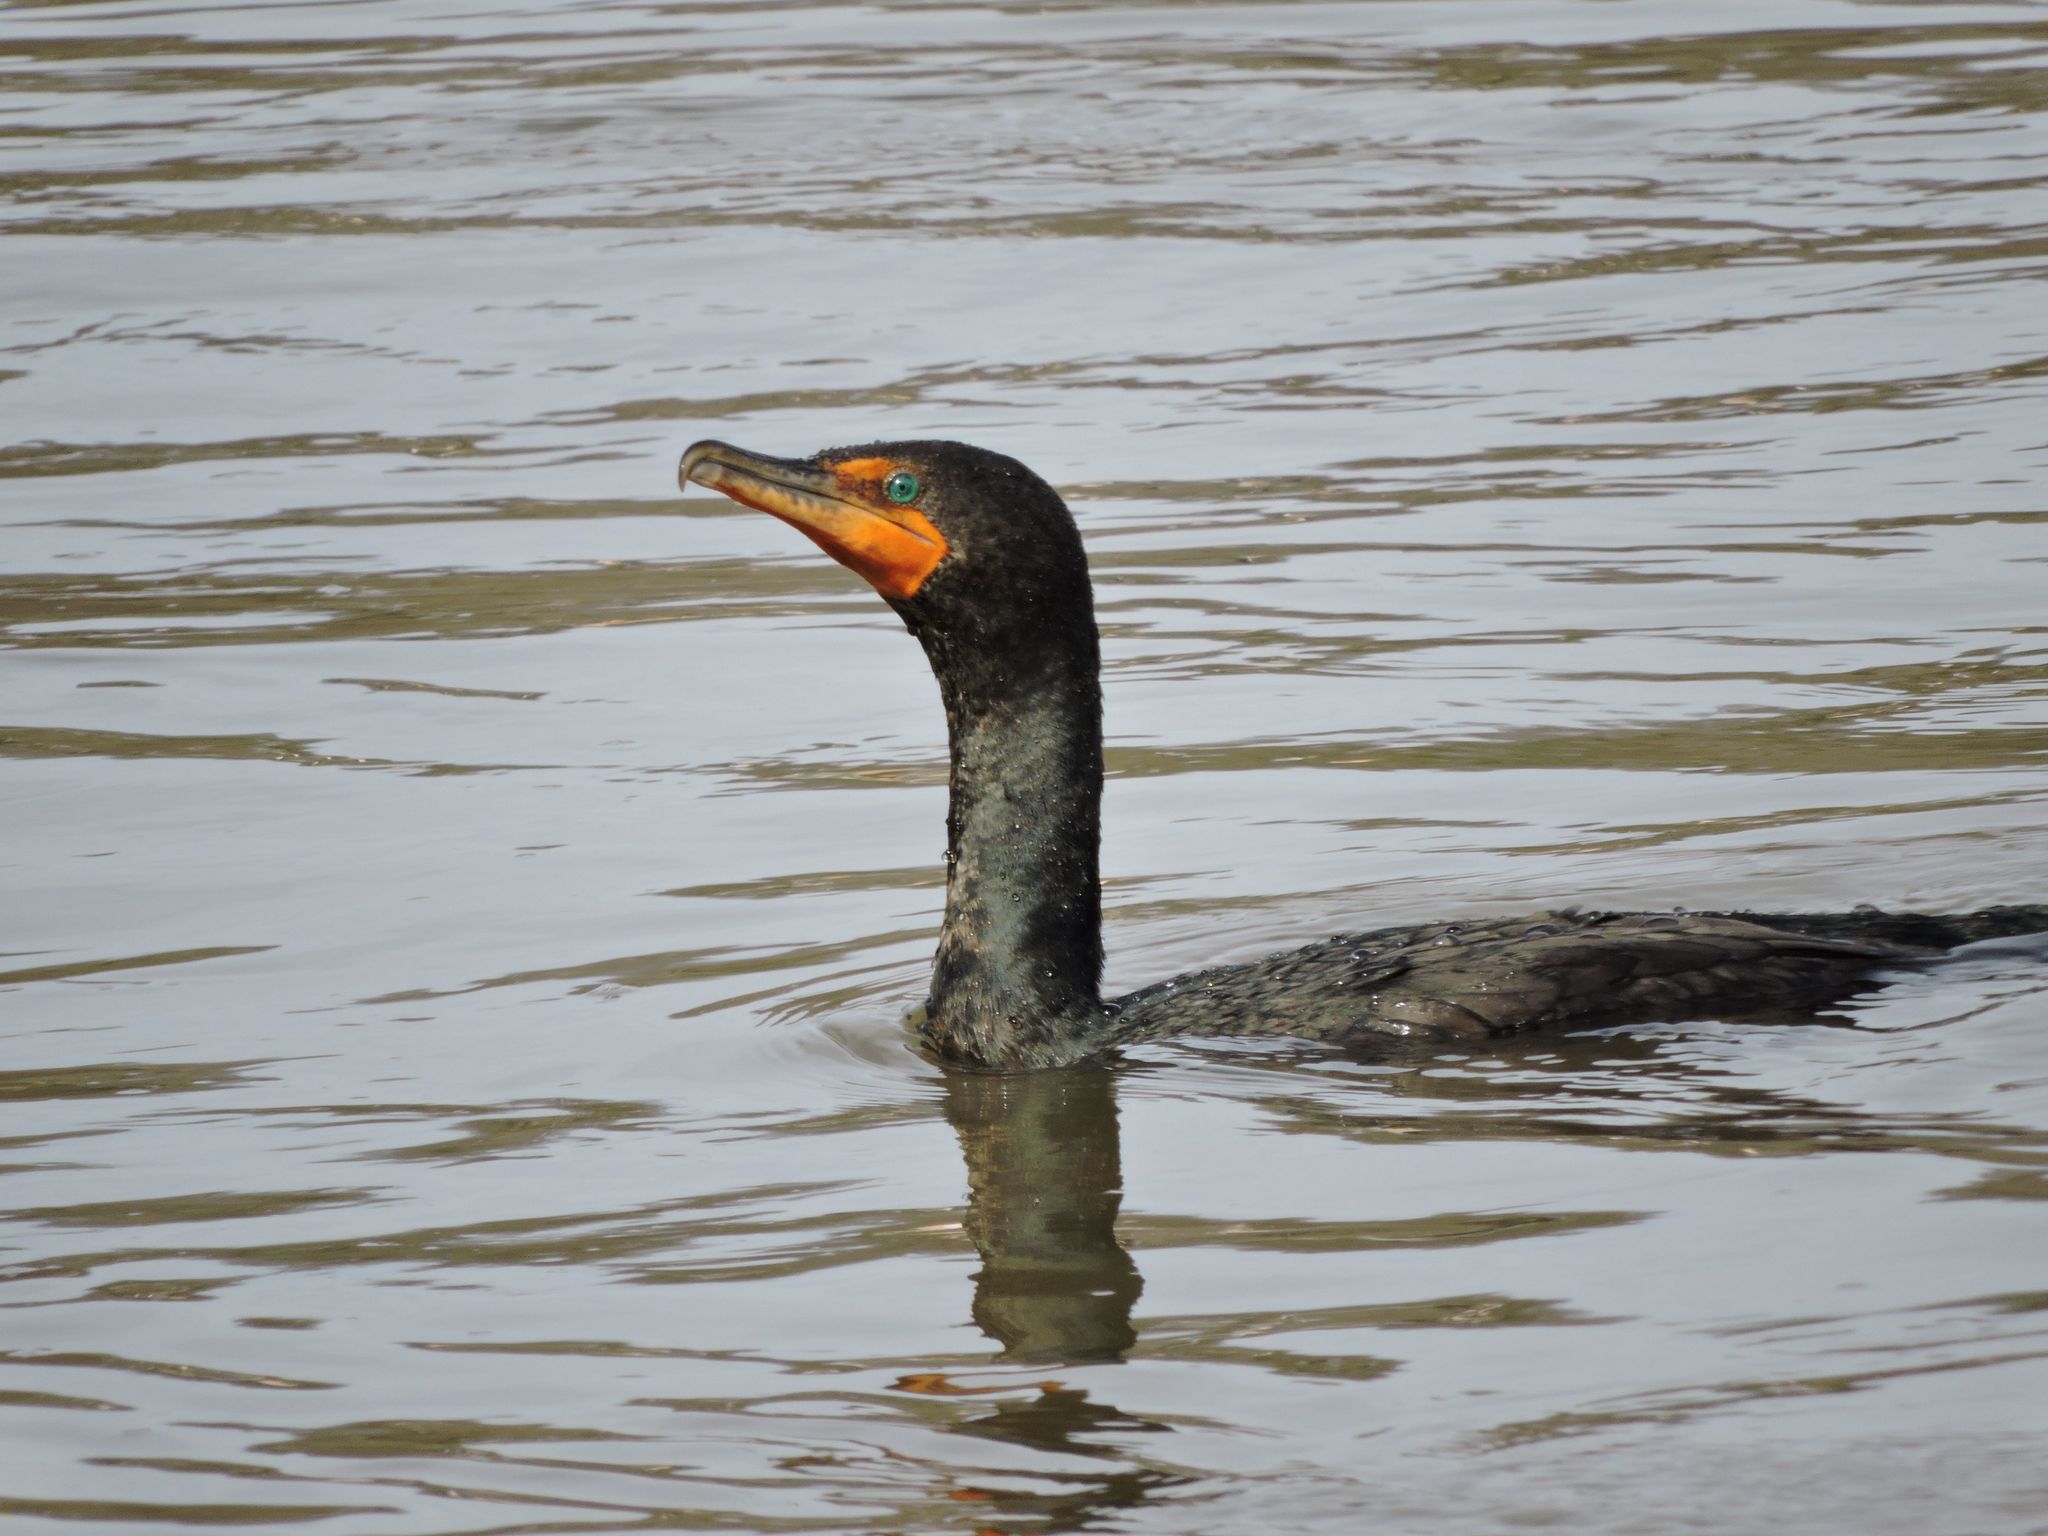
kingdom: Animalia
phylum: Chordata
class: Aves
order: Suliformes
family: Phalacrocoracidae
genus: Phalacrocorax
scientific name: Phalacrocorax auritus
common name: Double-crested cormorant
